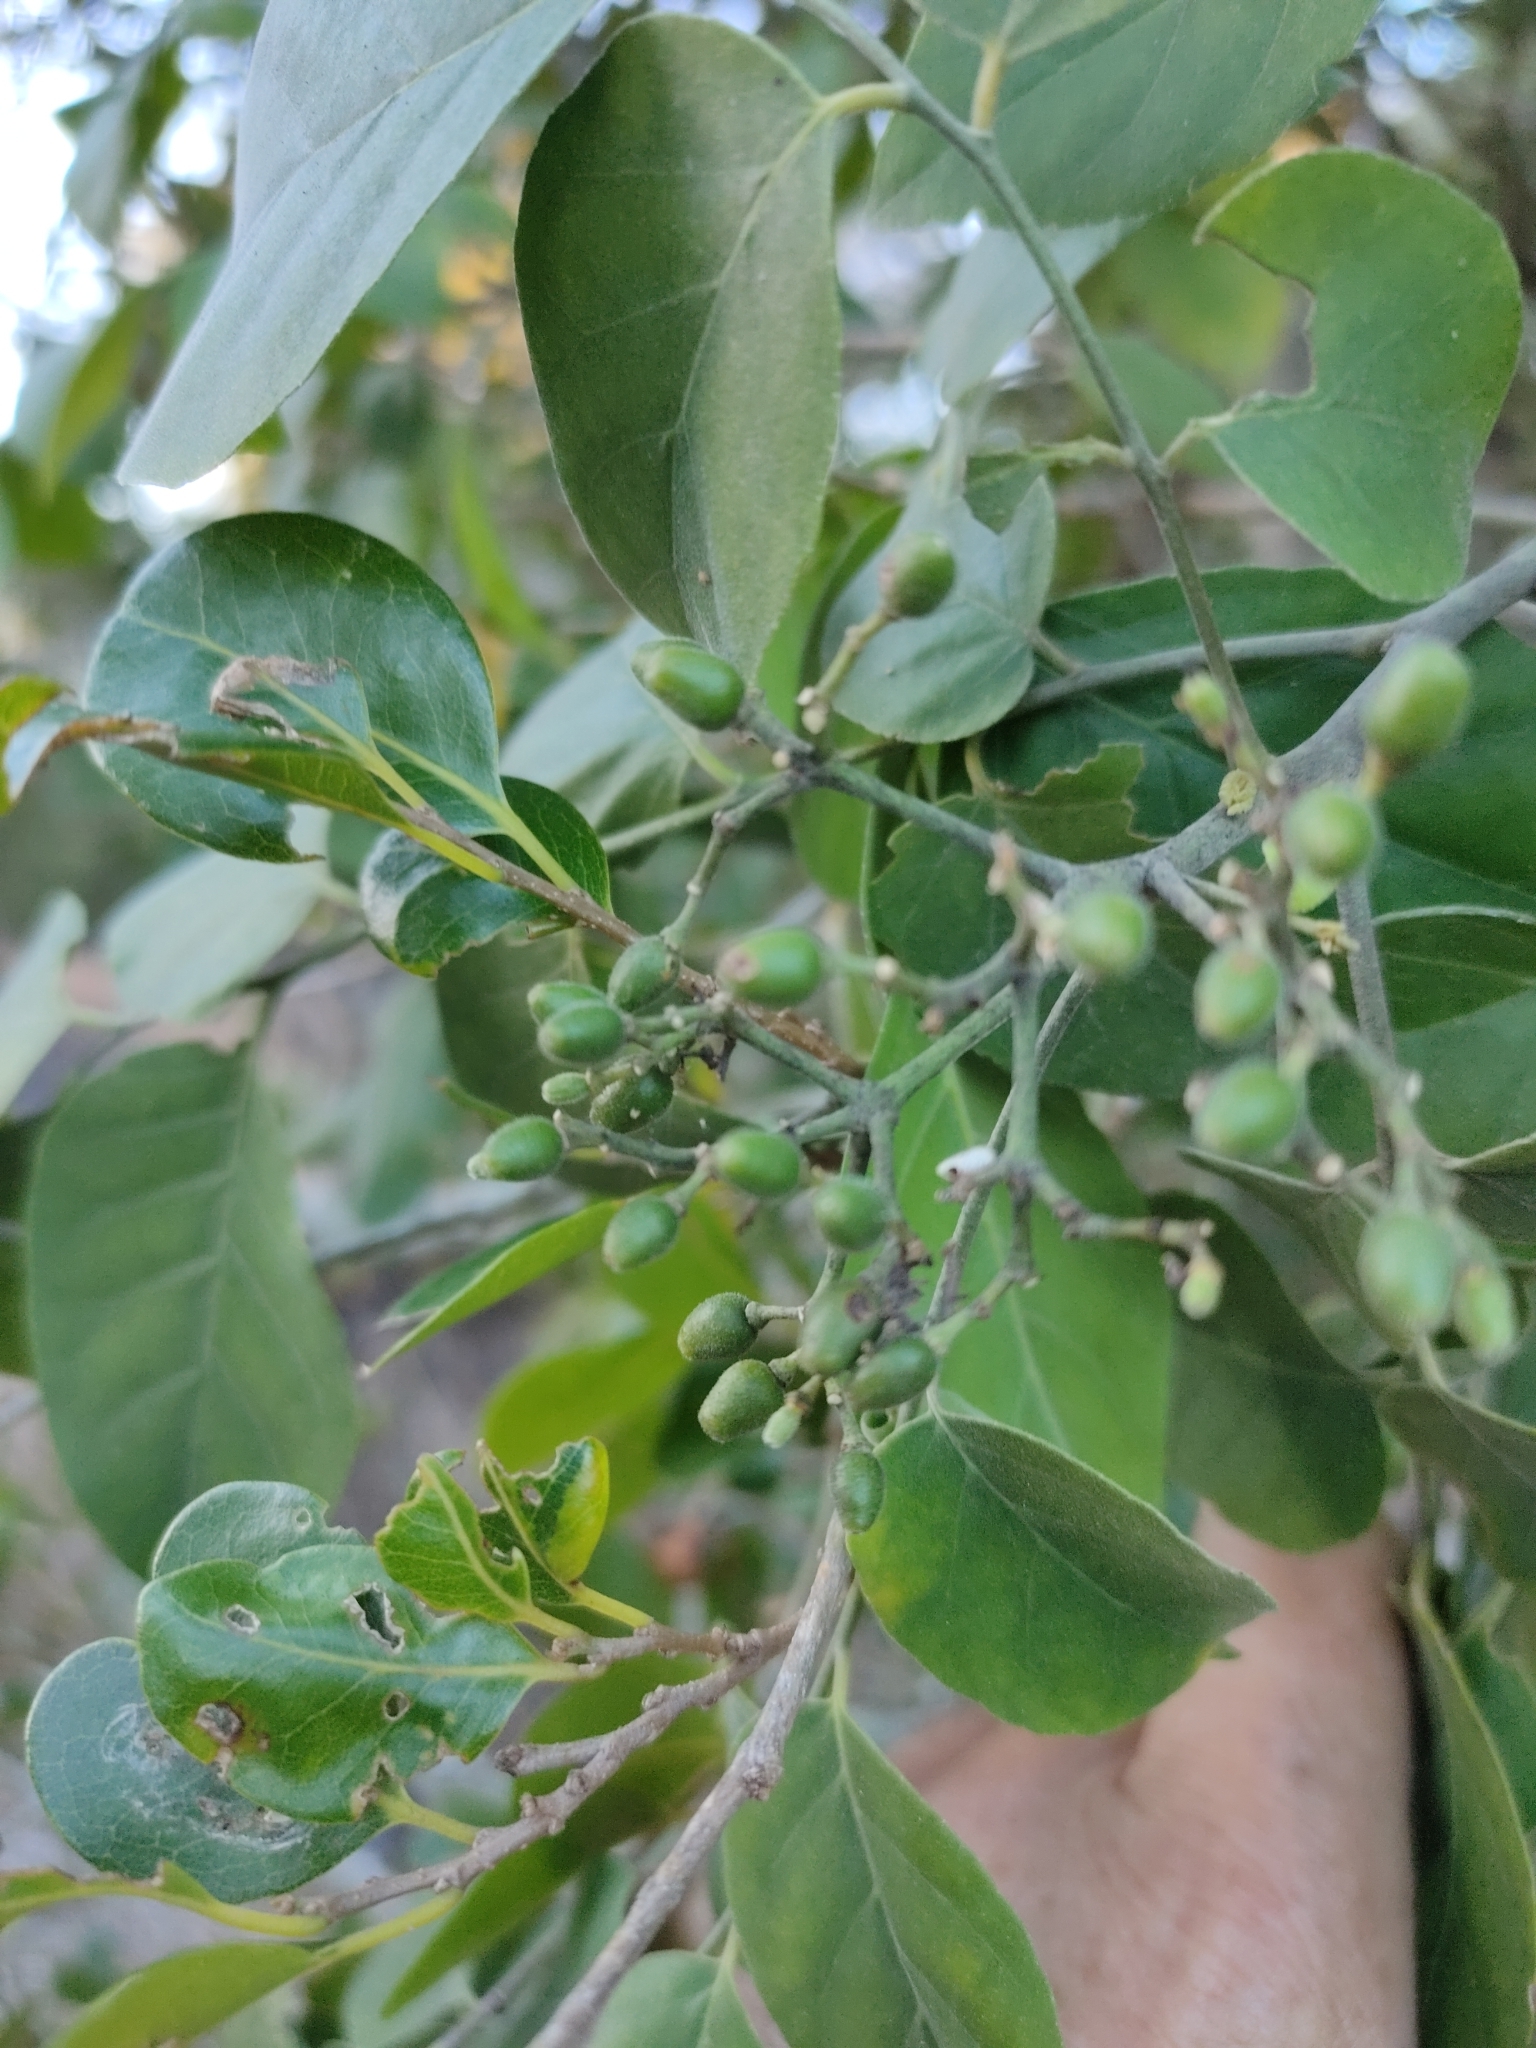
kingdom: Plantae
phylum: Tracheophyta
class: Magnoliopsida
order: Sapindales
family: Rutaceae
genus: Micromelum
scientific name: Micromelum minutum
